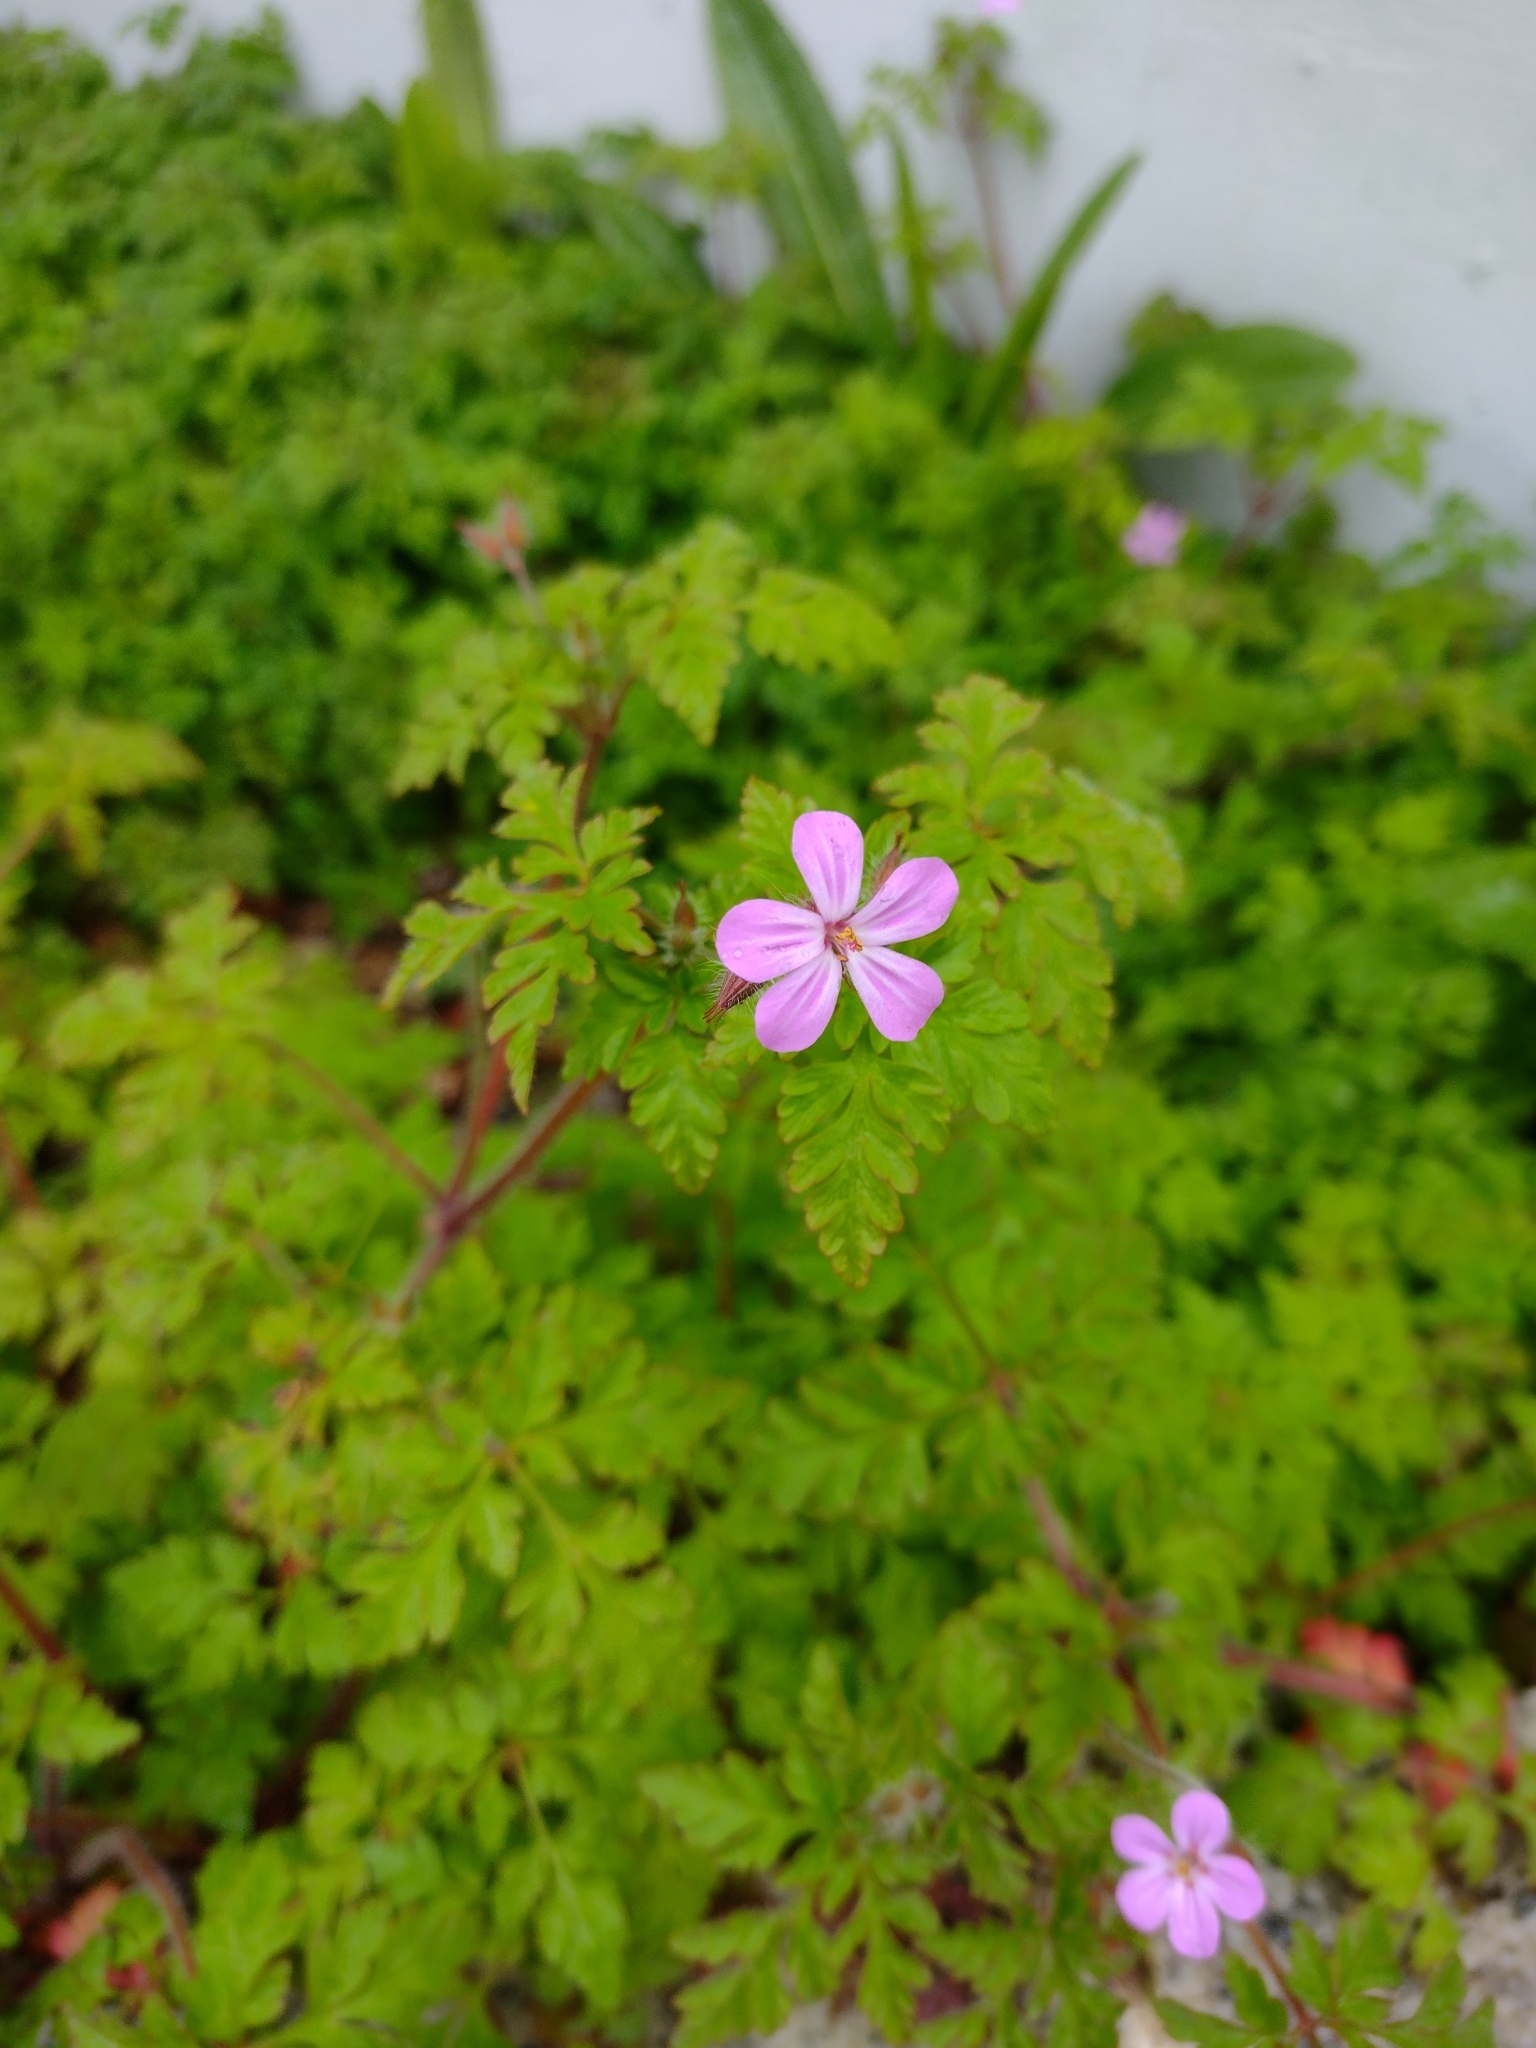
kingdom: Plantae
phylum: Tracheophyta
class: Magnoliopsida
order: Geraniales
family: Geraniaceae
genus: Geranium
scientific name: Geranium robertianum
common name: Herb-robert
